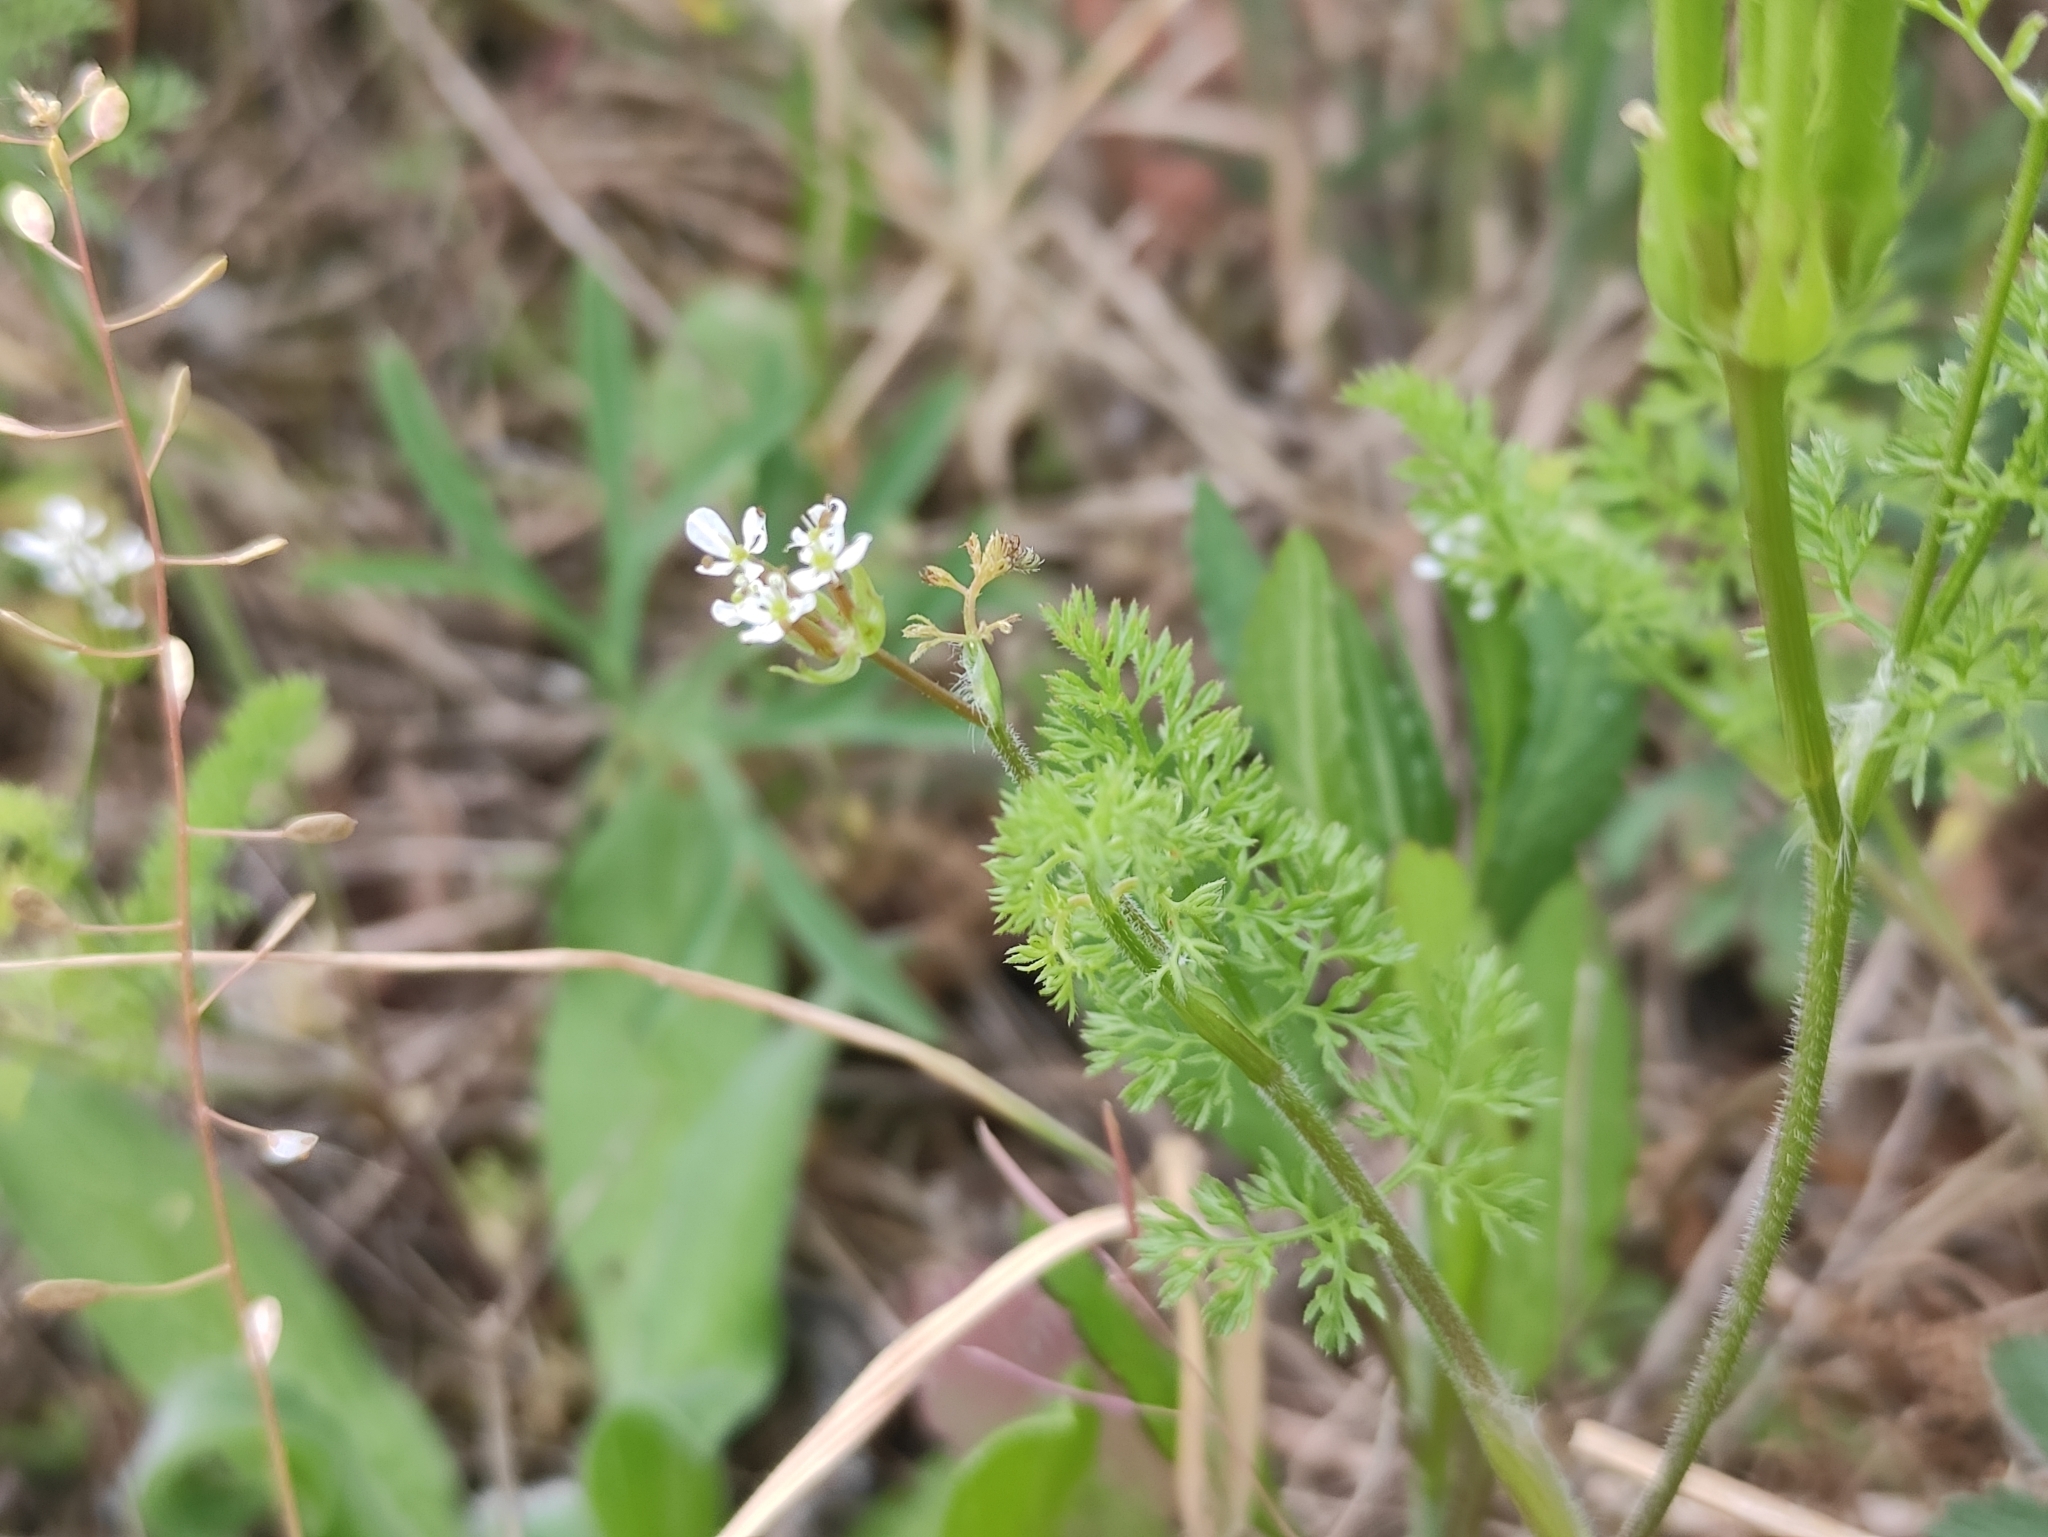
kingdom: Plantae
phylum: Tracheophyta
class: Magnoliopsida
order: Apiales
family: Apiaceae
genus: Scandix
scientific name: Scandix pecten-veneris
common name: Shepherd's-needle
